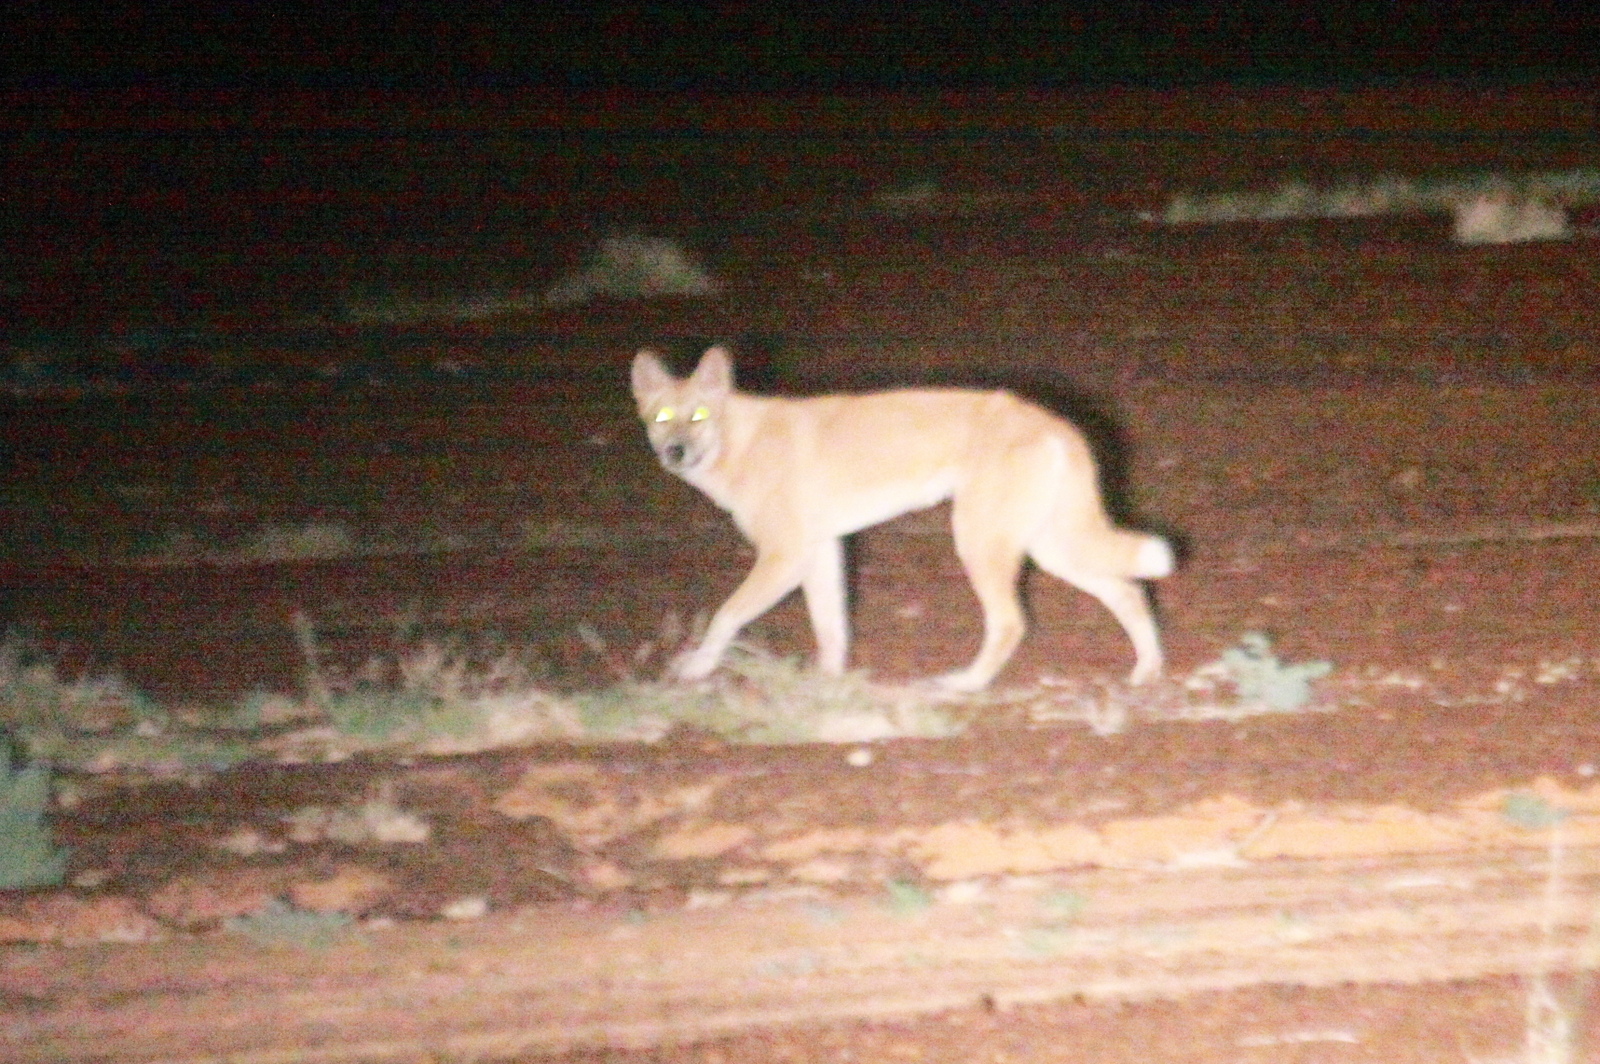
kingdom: Animalia
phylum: Chordata
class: Mammalia
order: Carnivora
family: Canidae
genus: Canis
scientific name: Canis lupus
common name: Gray wolf
